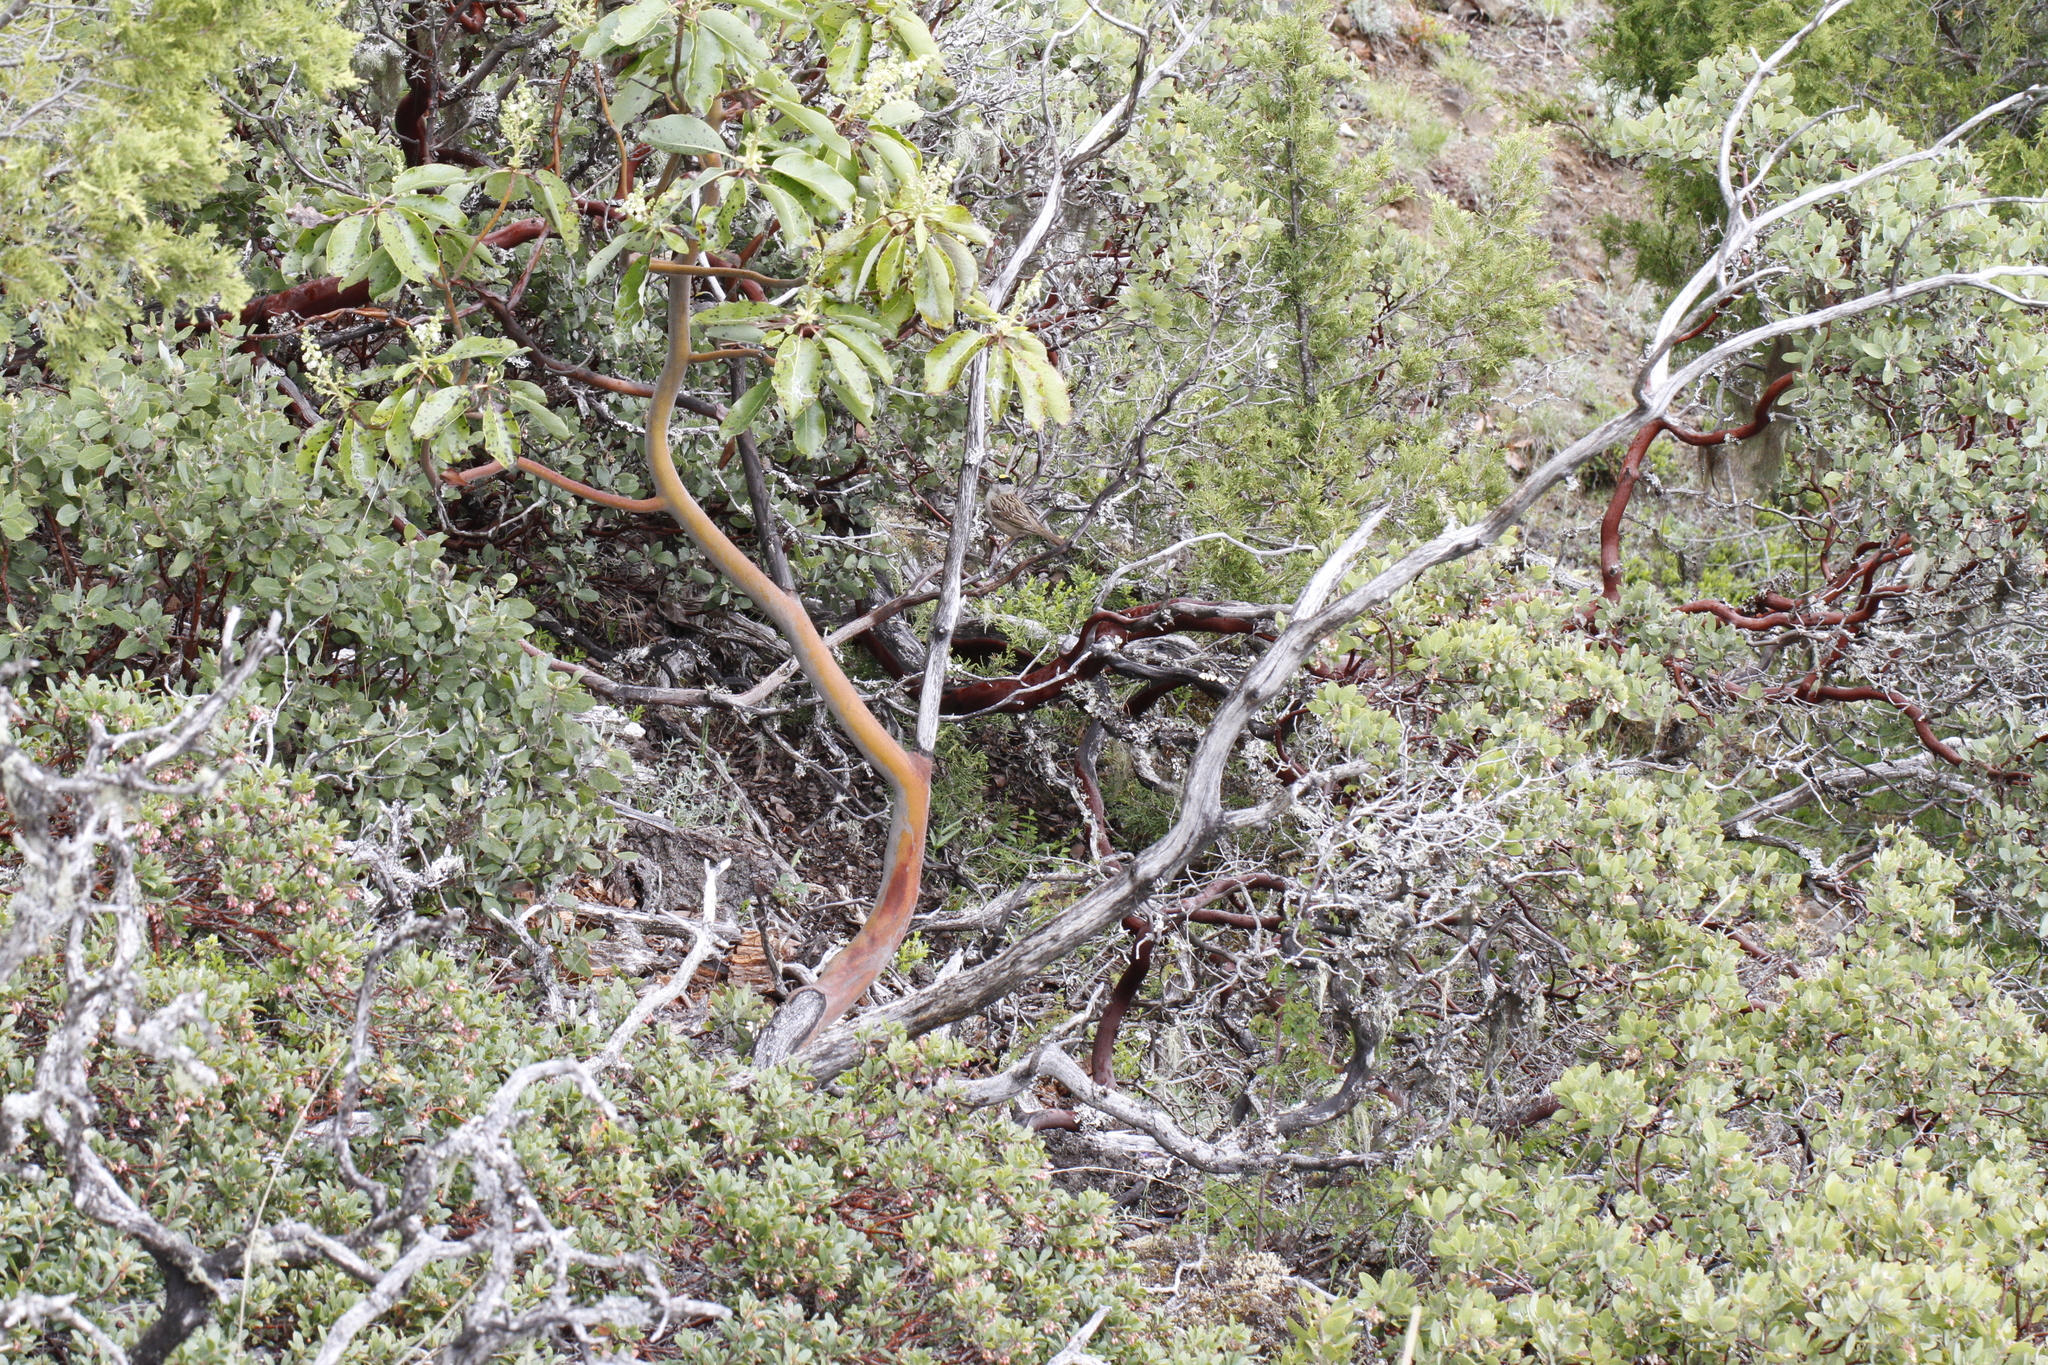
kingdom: Plantae
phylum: Tracheophyta
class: Magnoliopsida
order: Ericales
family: Ericaceae
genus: Arbutus
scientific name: Arbutus menziesii
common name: Pacific madrone
